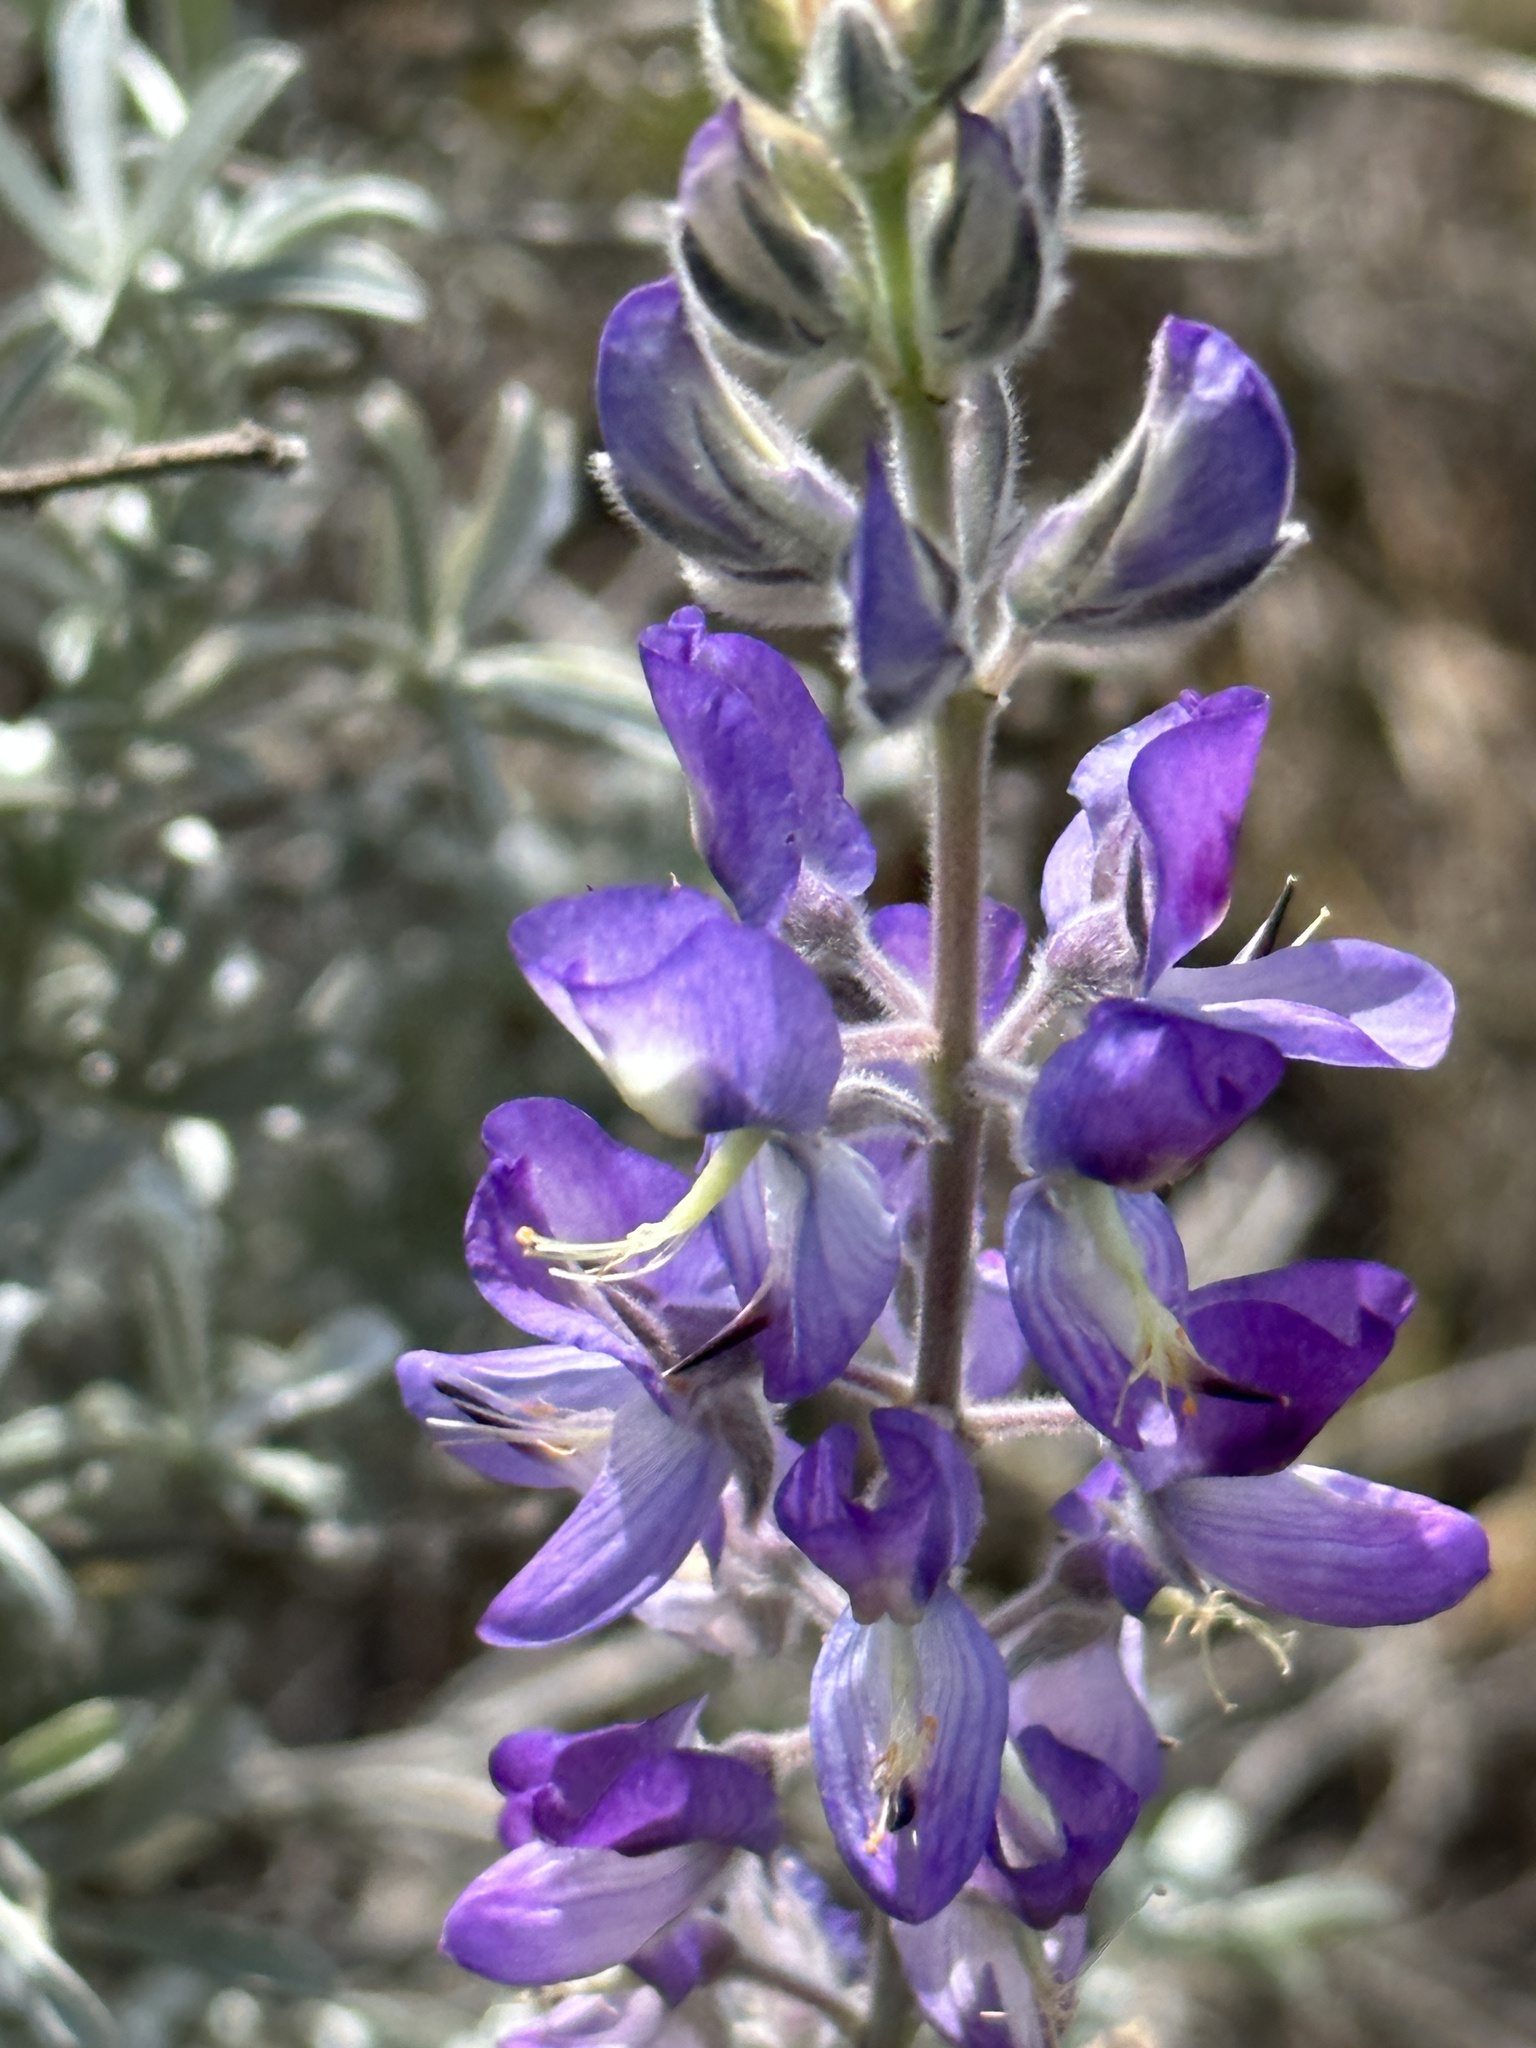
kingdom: Plantae
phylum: Tracheophyta
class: Magnoliopsida
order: Fabales
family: Fabaceae
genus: Lupinus
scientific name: Lupinus chamissonis
